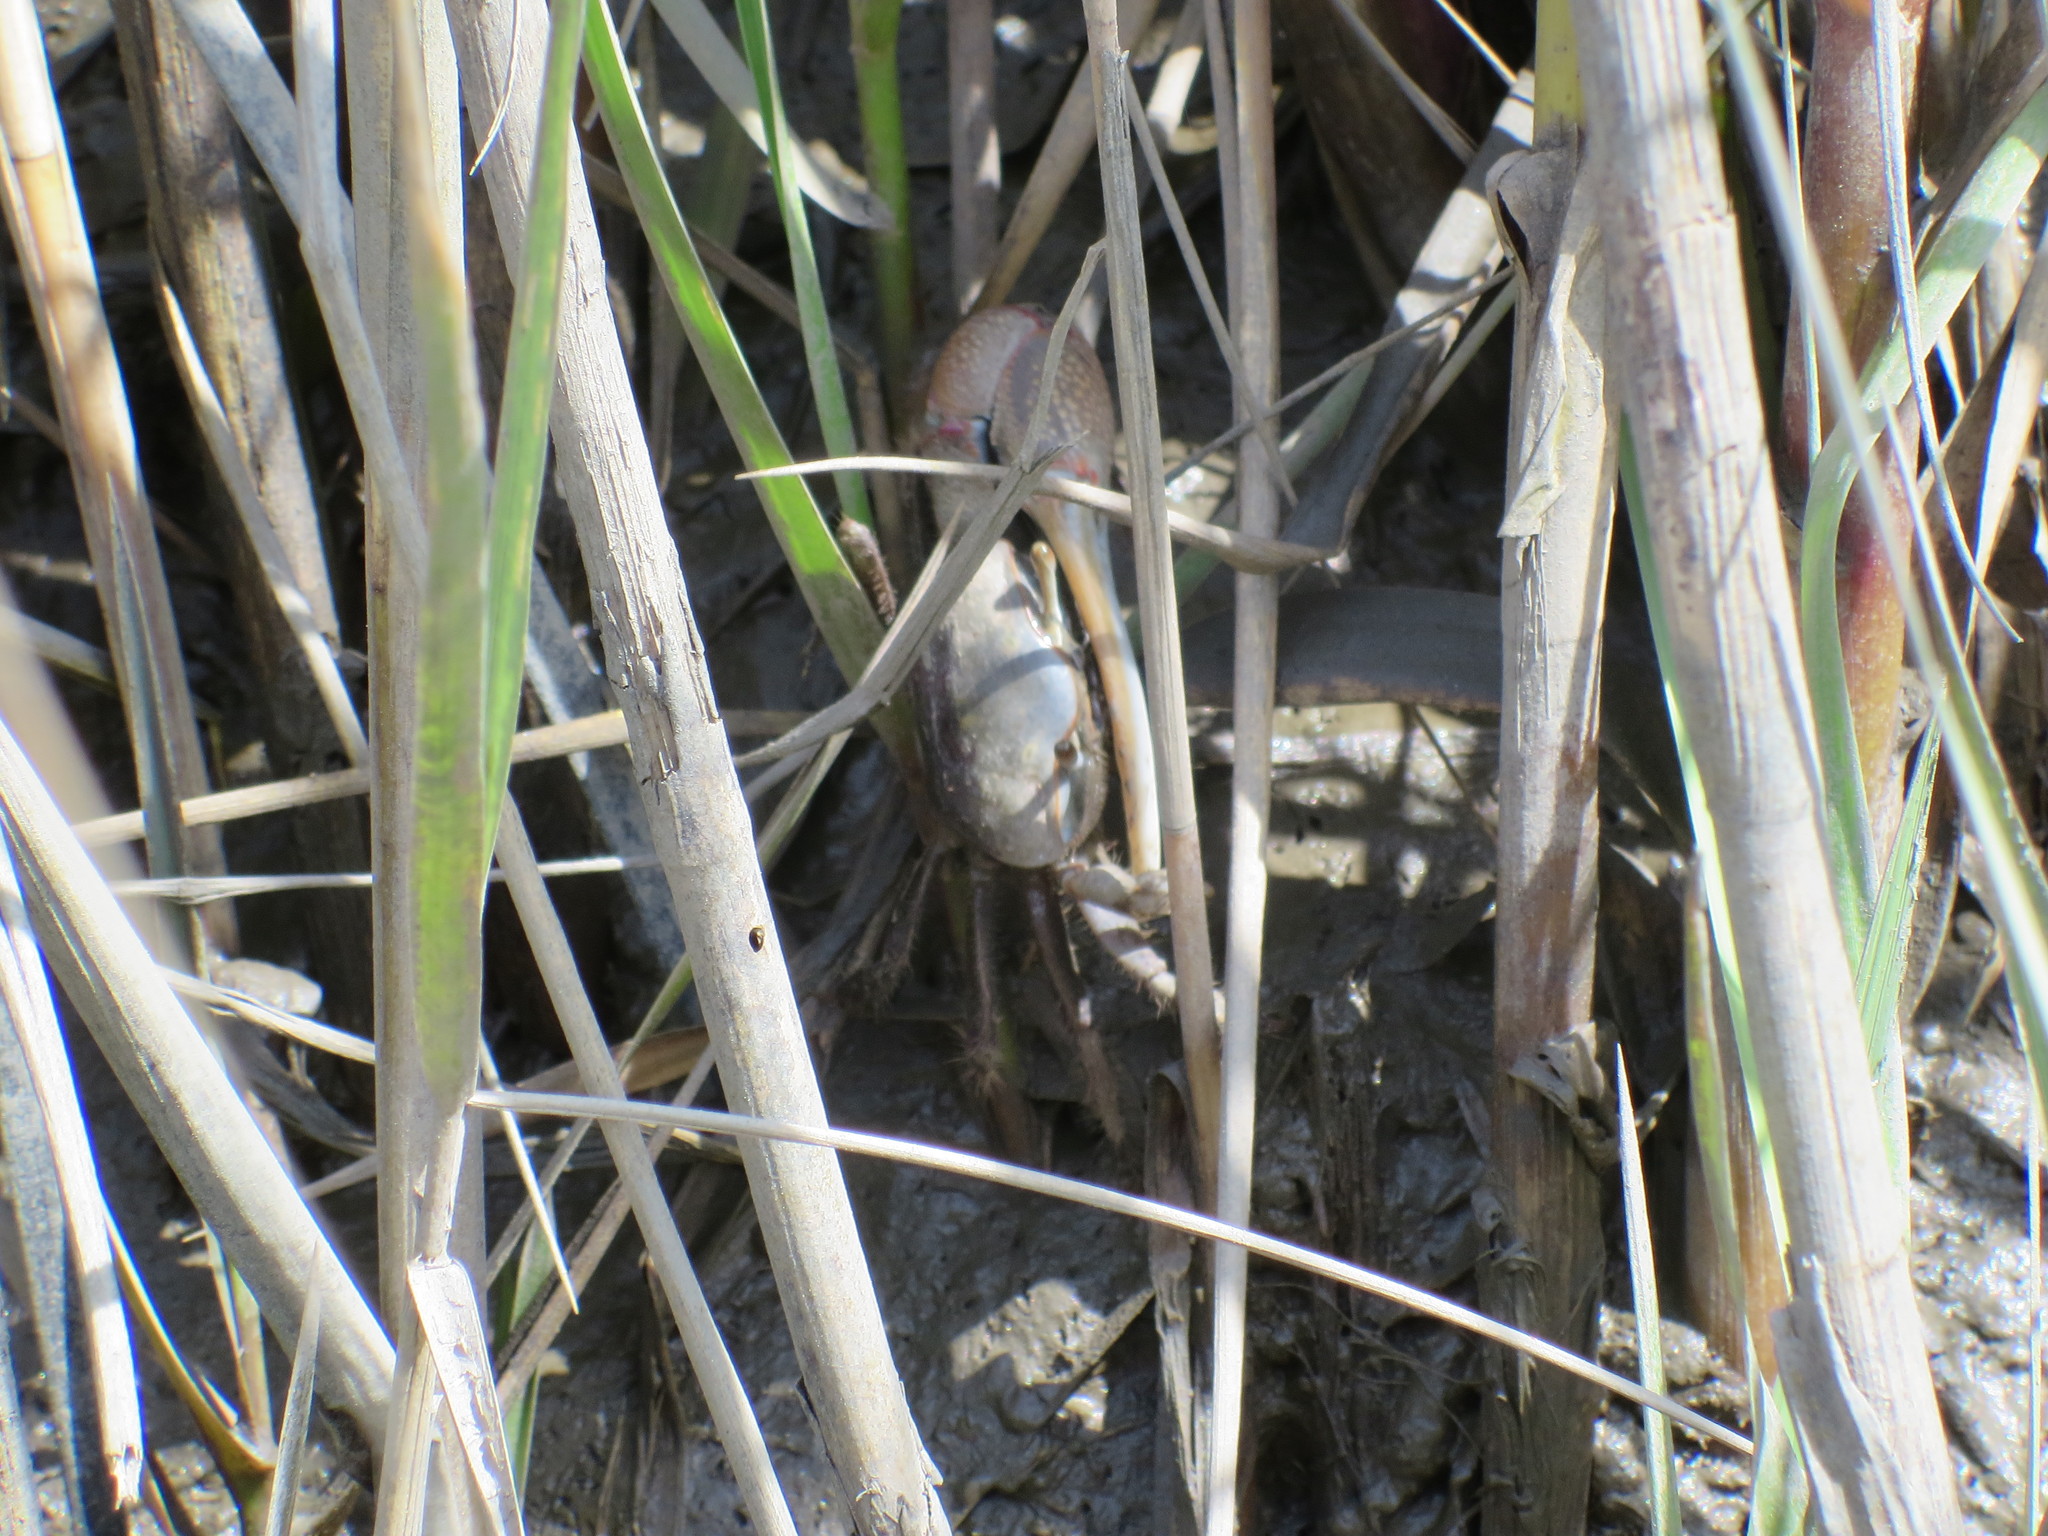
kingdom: Animalia
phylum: Arthropoda
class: Malacostraca
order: Decapoda
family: Ocypodidae
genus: Minuca
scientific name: Minuca minax
